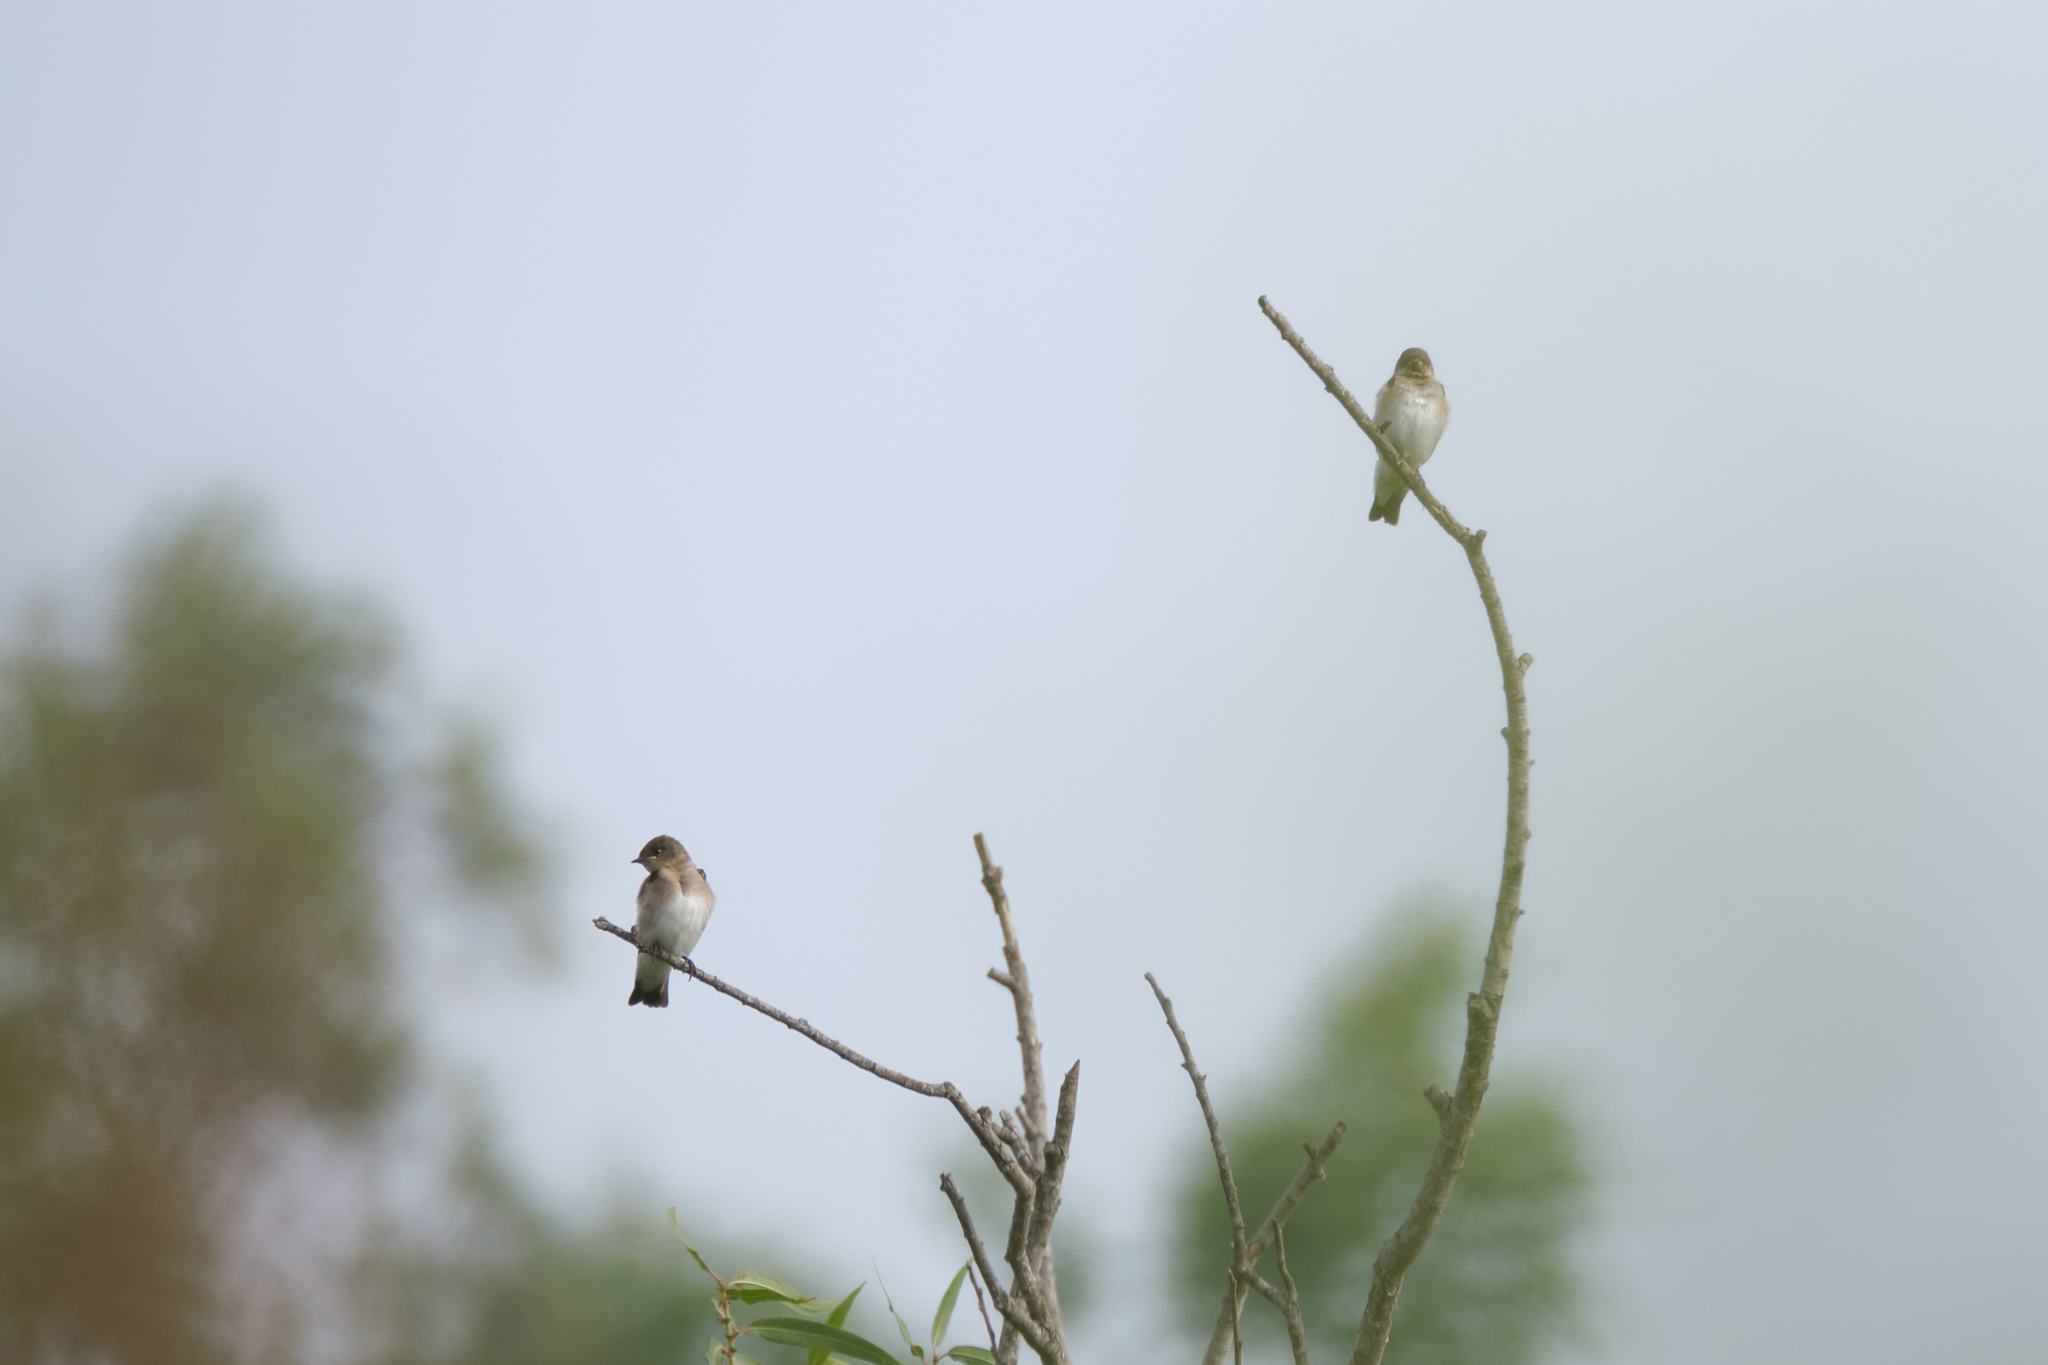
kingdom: Animalia
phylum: Chordata
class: Aves
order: Passeriformes
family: Hirundinidae
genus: Stelgidopteryx
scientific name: Stelgidopteryx serripennis
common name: Northern rough-winged swallow
